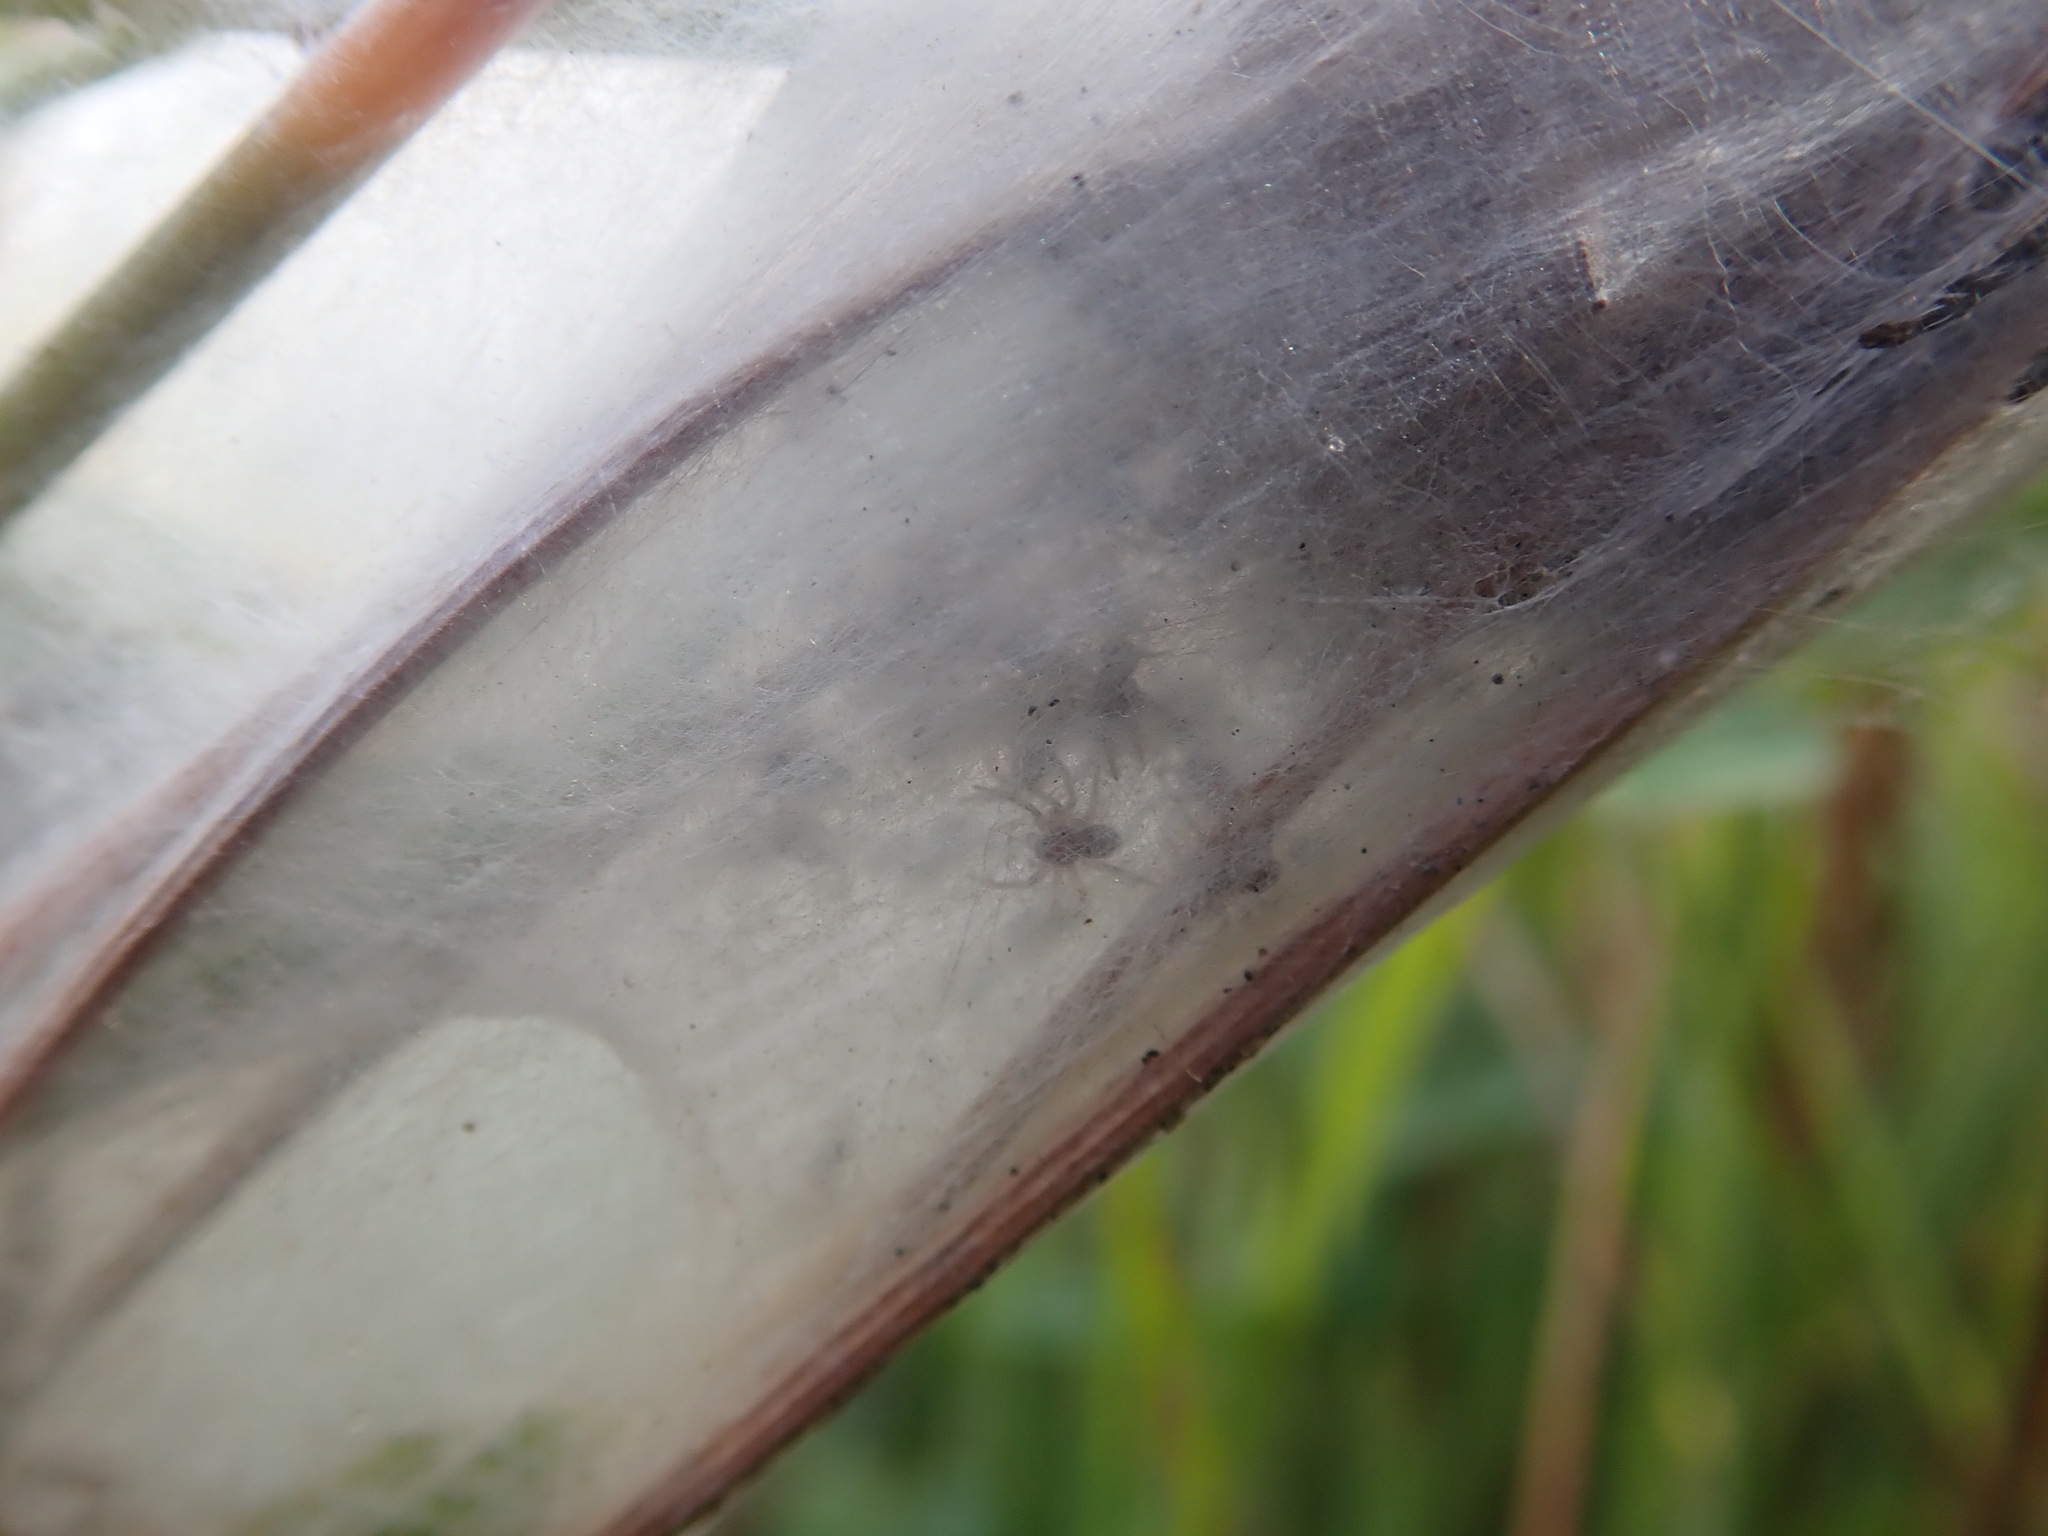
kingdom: Animalia
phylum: Arthropoda
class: Arachnida
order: Araneae
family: Pisauridae
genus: Dolomedes
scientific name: Dolomedes minor
